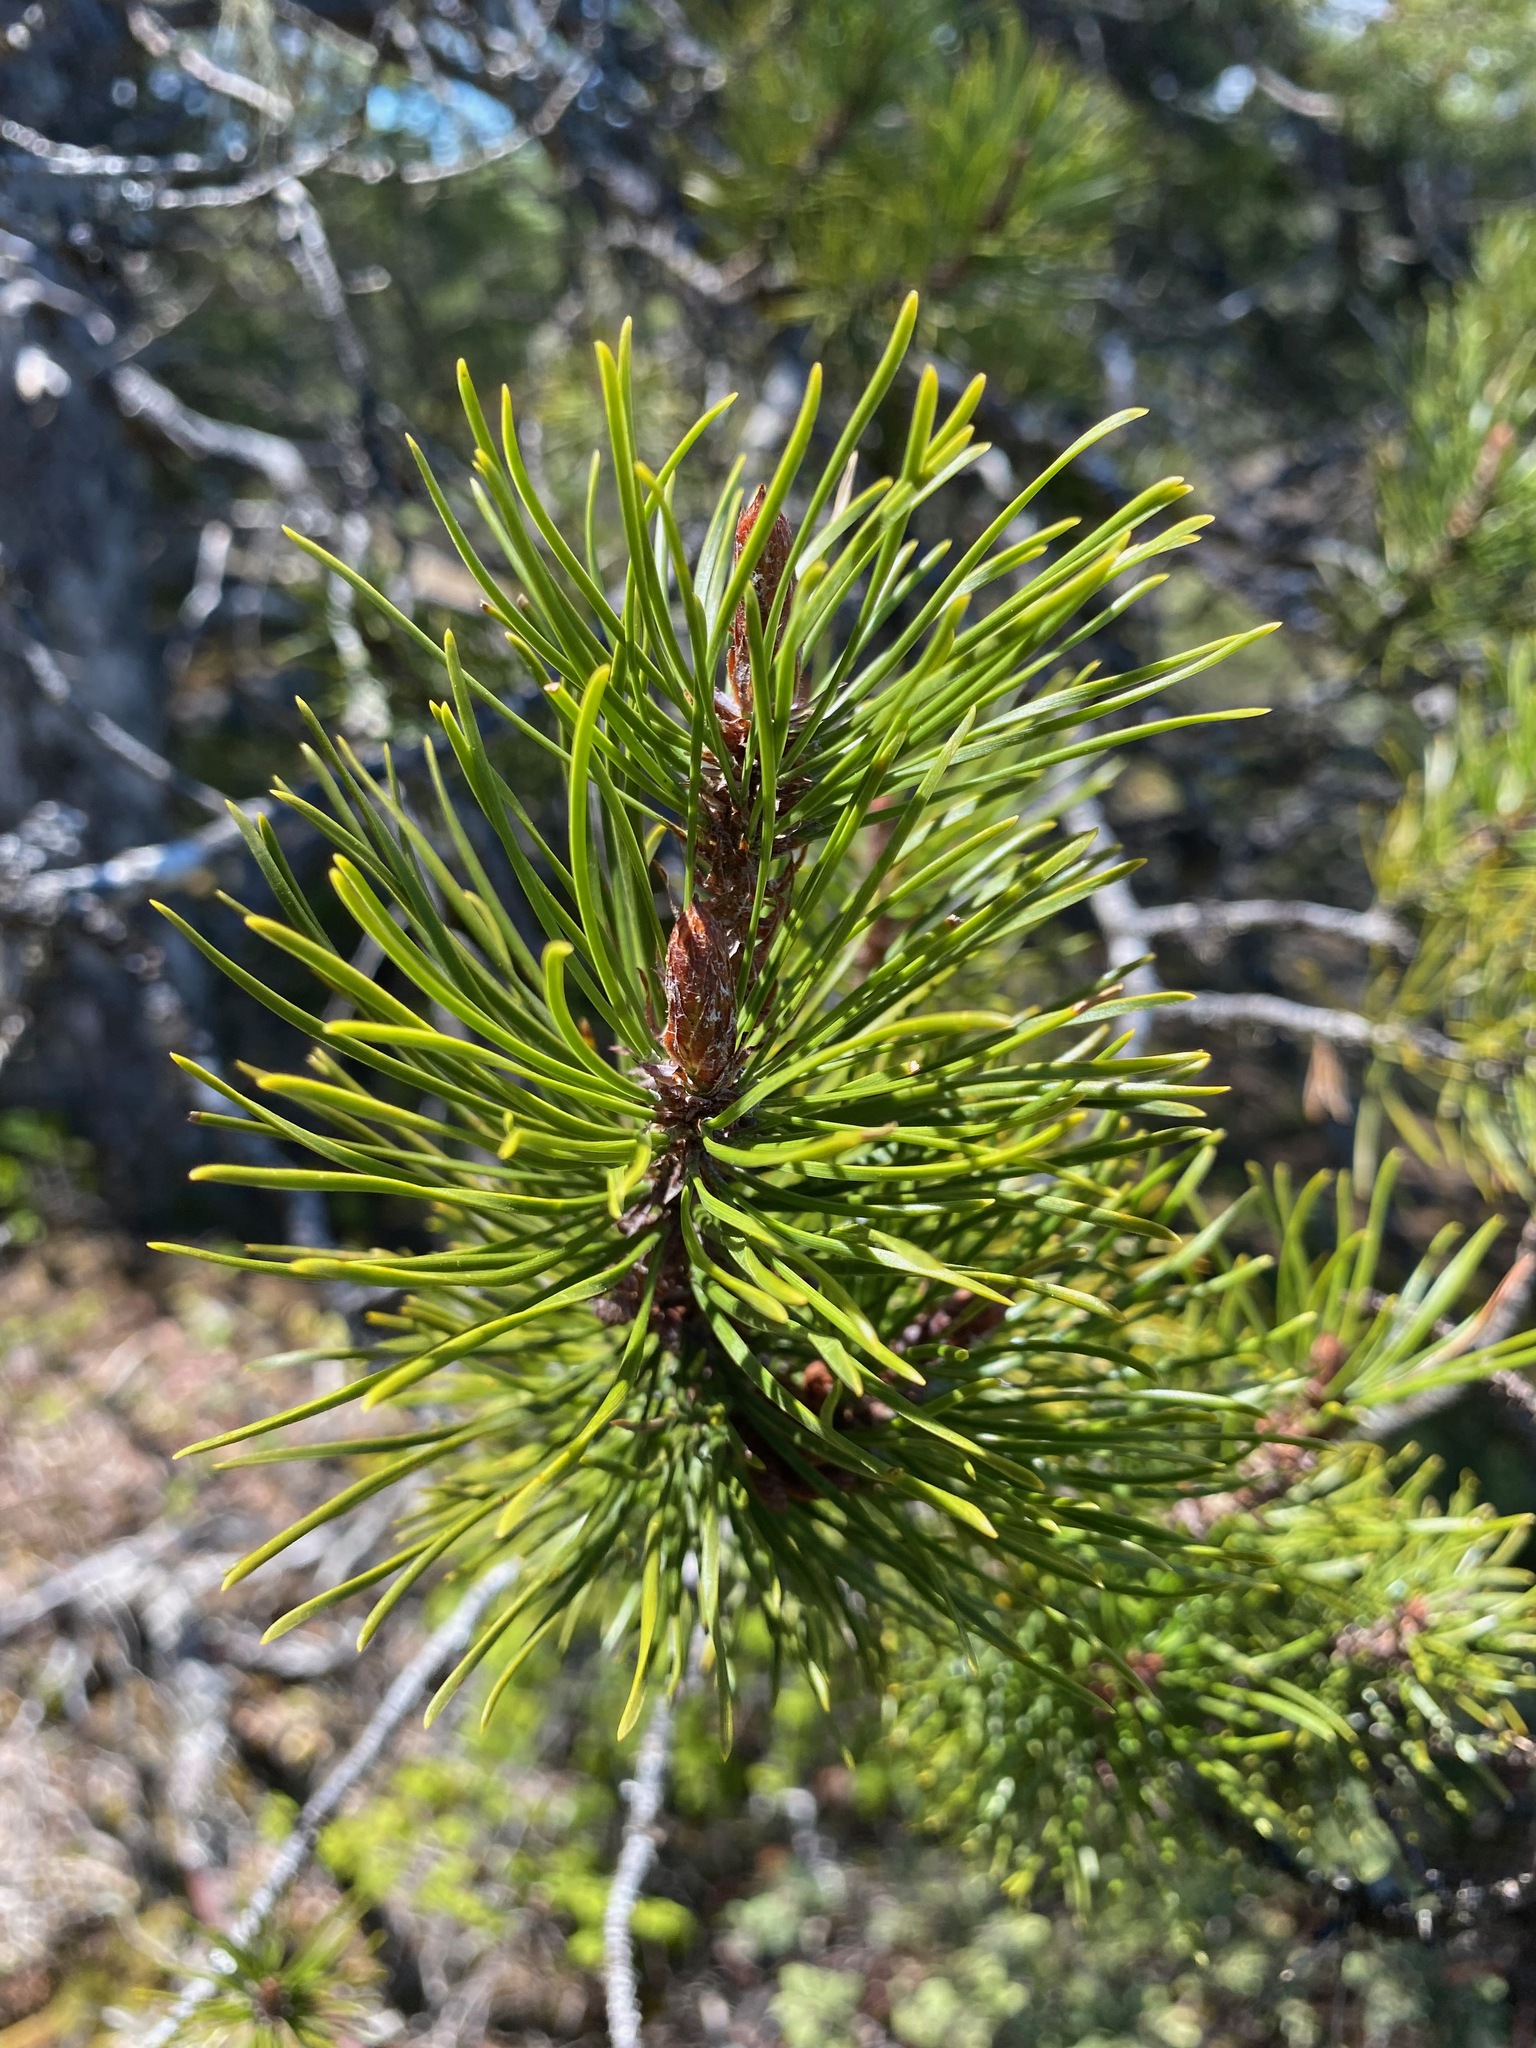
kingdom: Plantae
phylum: Tracheophyta
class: Pinopsida
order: Pinales
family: Pinaceae
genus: Pinus
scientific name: Pinus contorta
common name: Lodgepole pine
